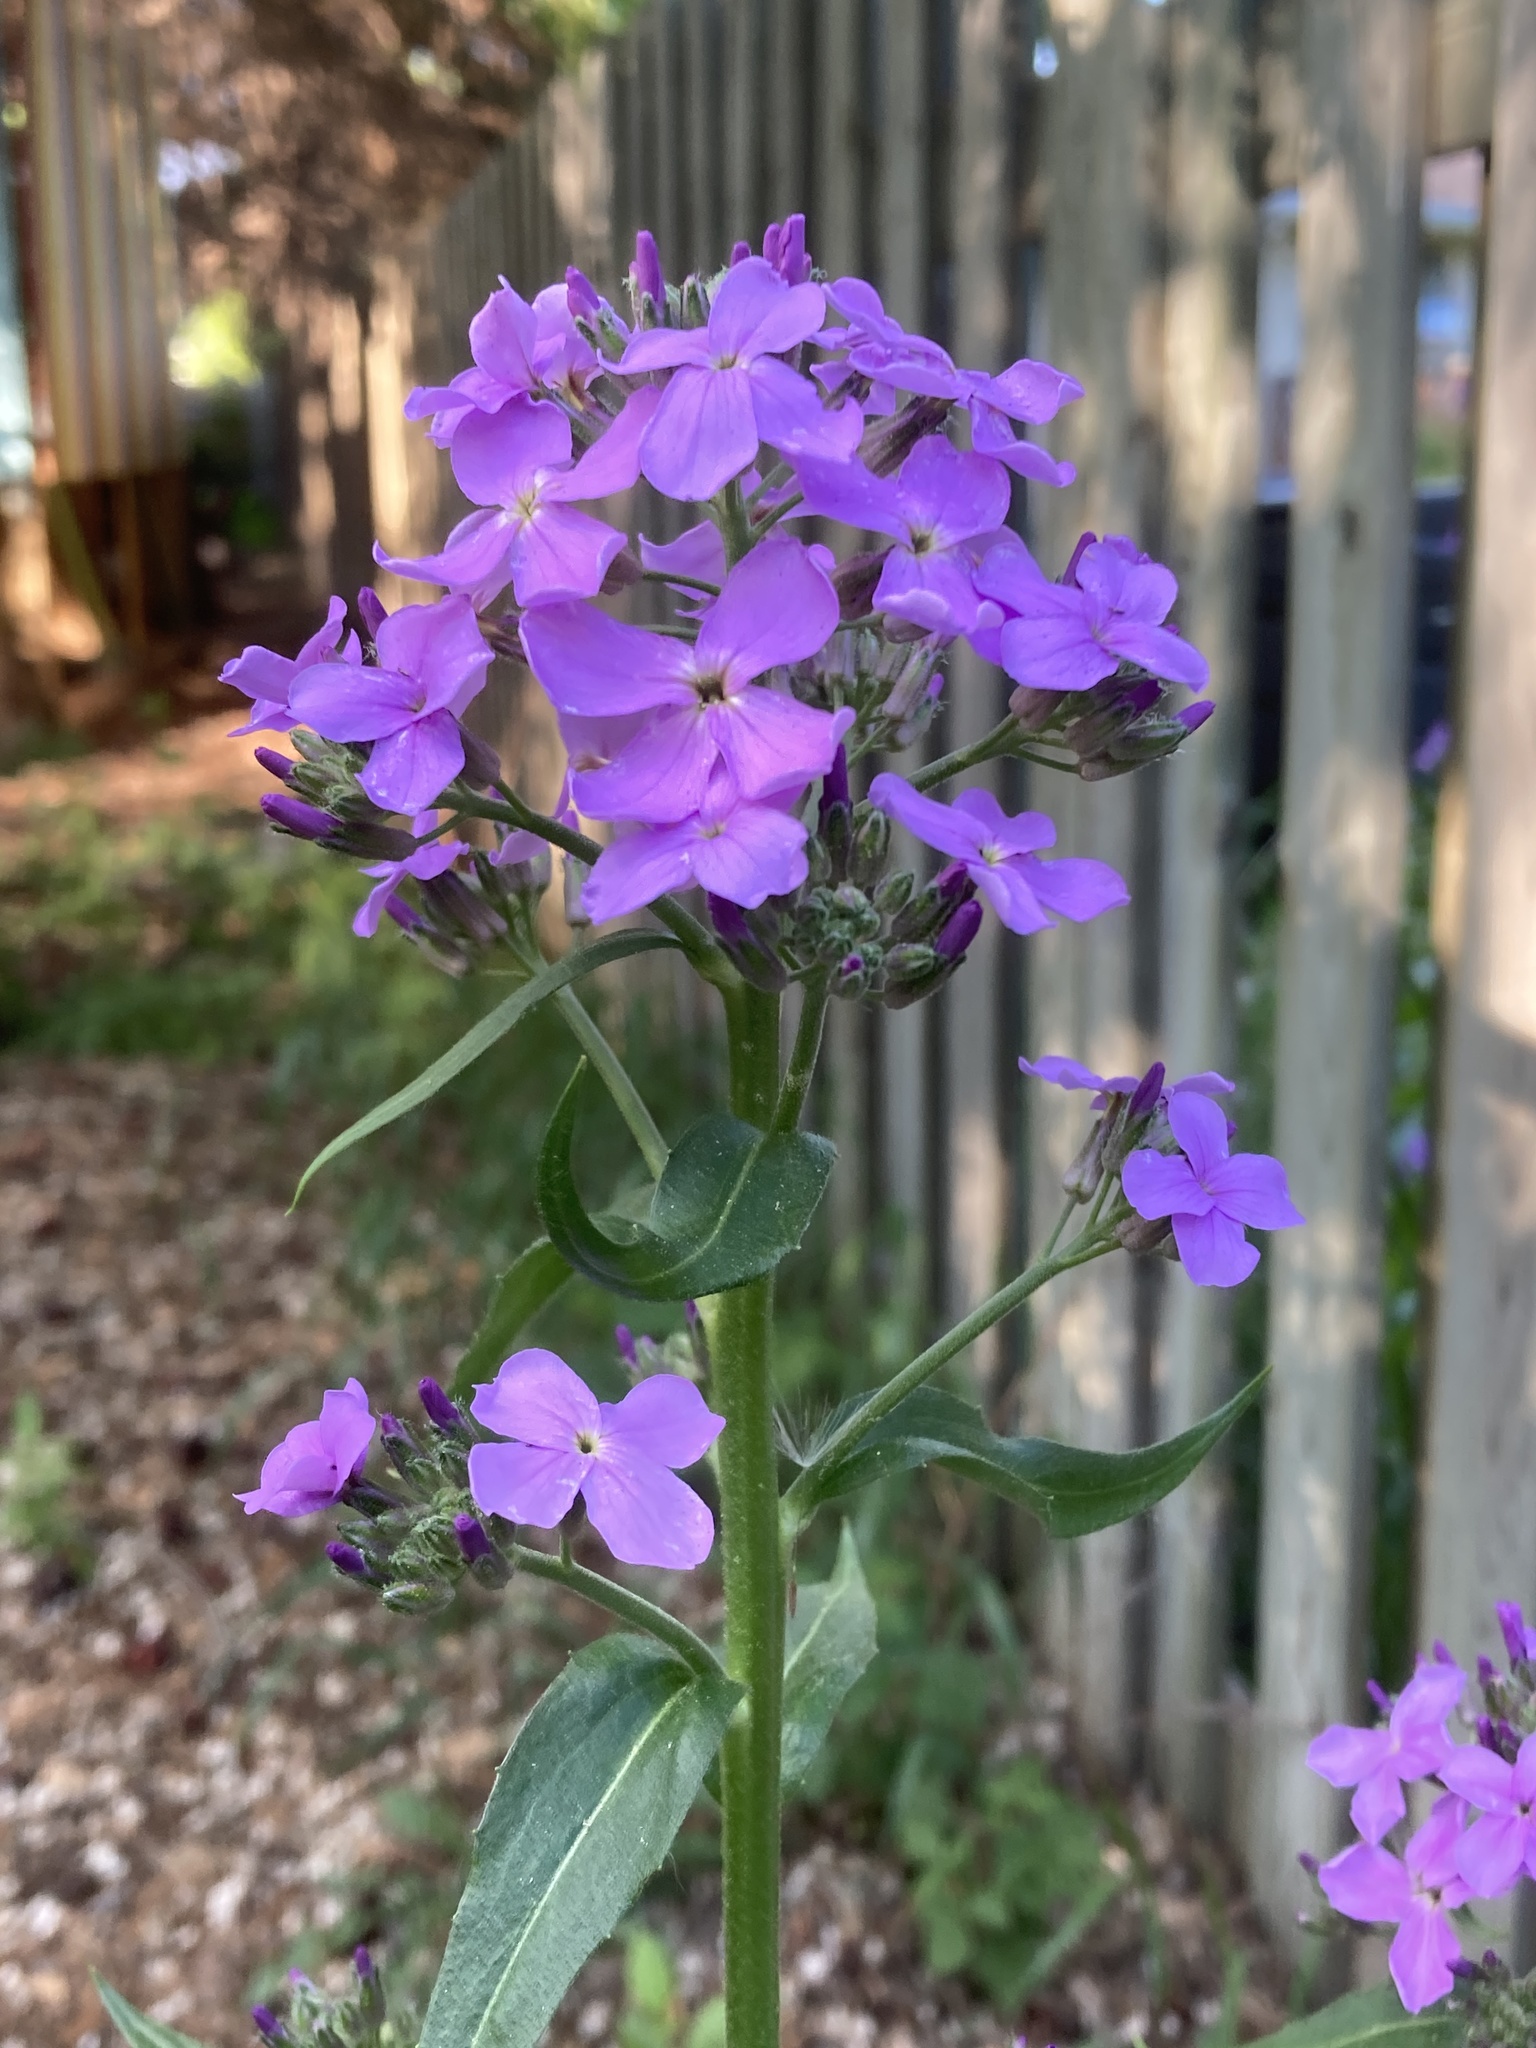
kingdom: Plantae
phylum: Tracheophyta
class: Magnoliopsida
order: Brassicales
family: Brassicaceae
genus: Hesperis
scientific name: Hesperis matronalis
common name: Dame's-violet
